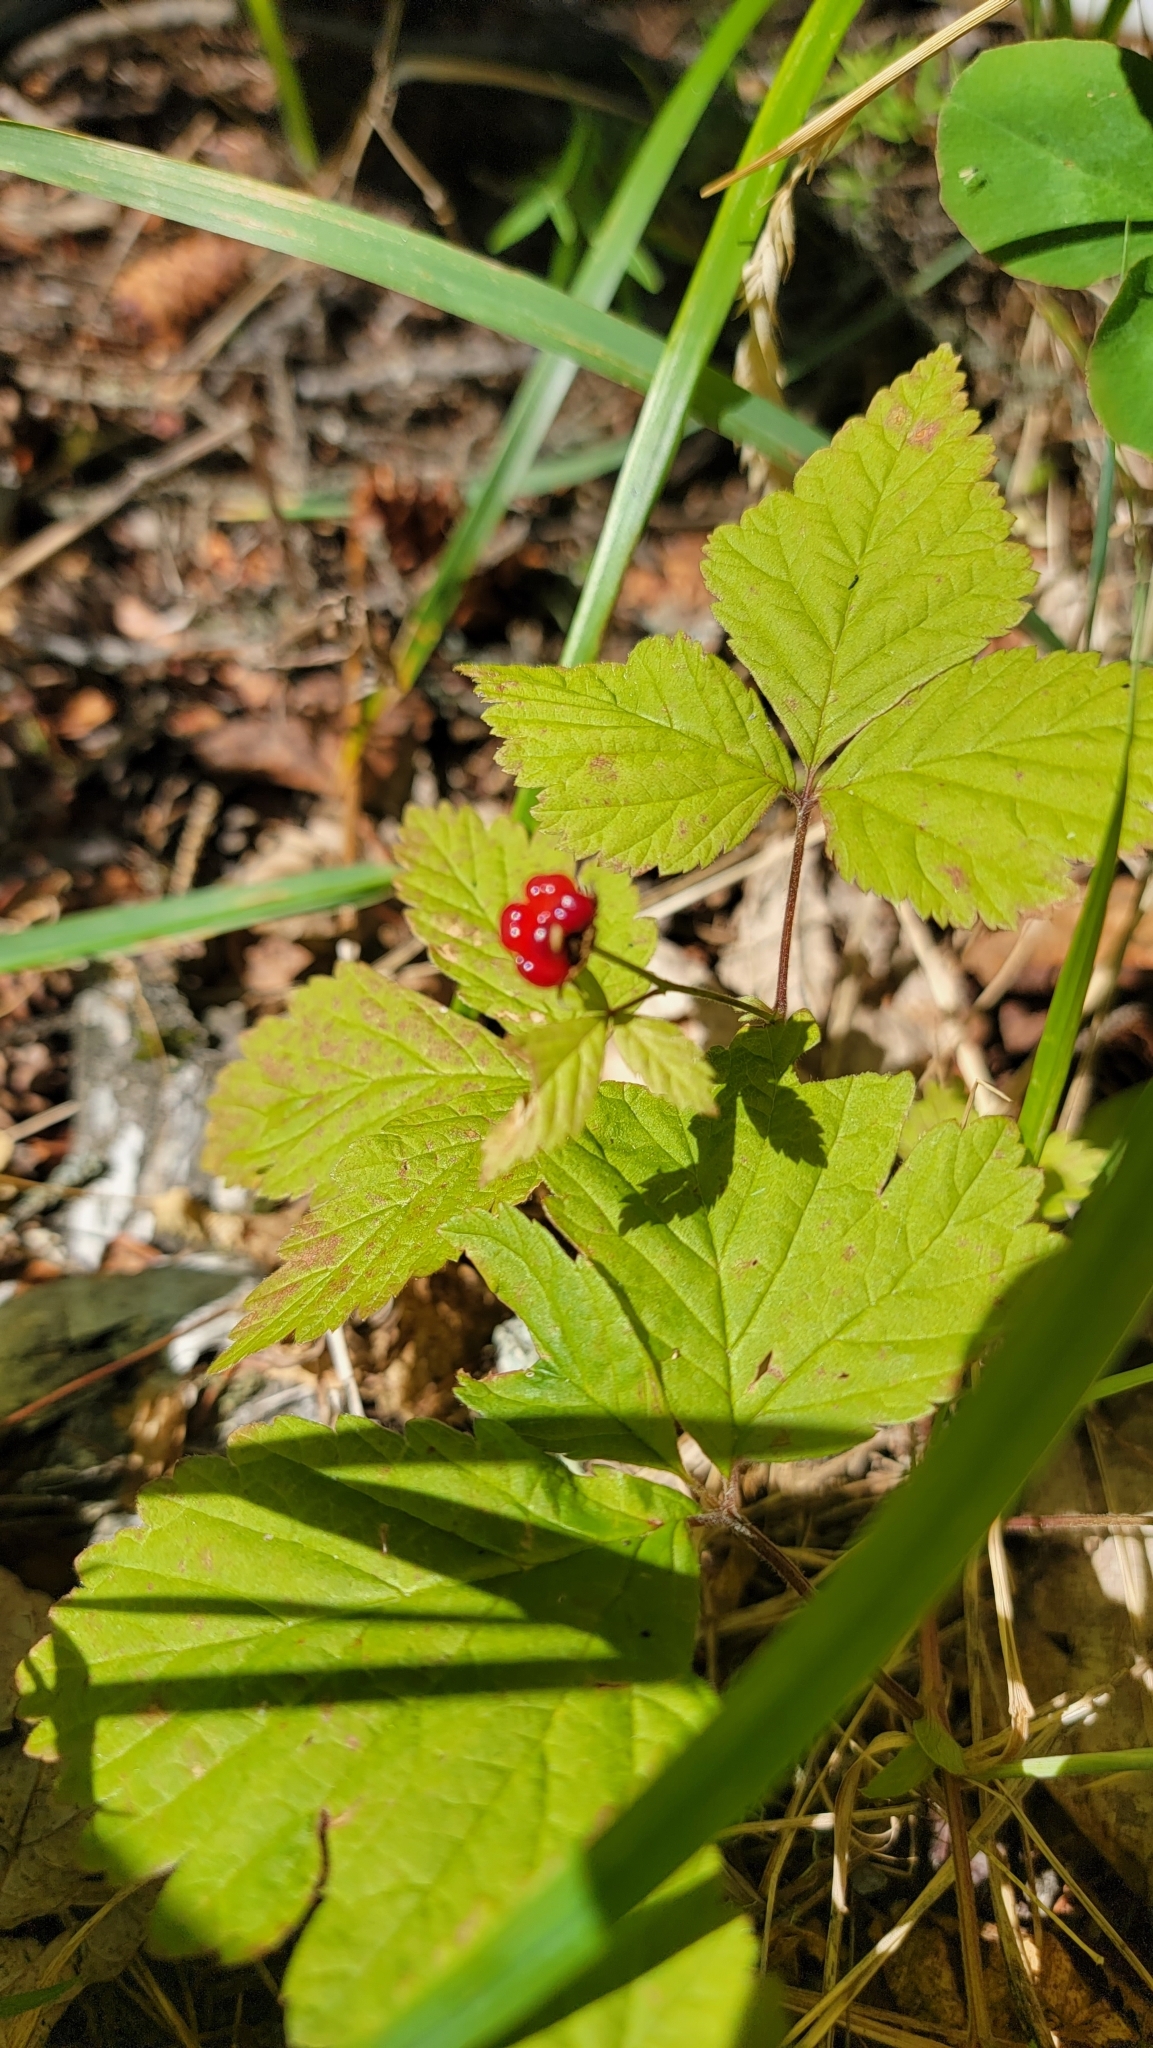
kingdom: Plantae
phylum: Tracheophyta
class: Magnoliopsida
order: Rosales
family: Rosaceae
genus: Rubus
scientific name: Rubus pubescens
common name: Dwarf raspberry
